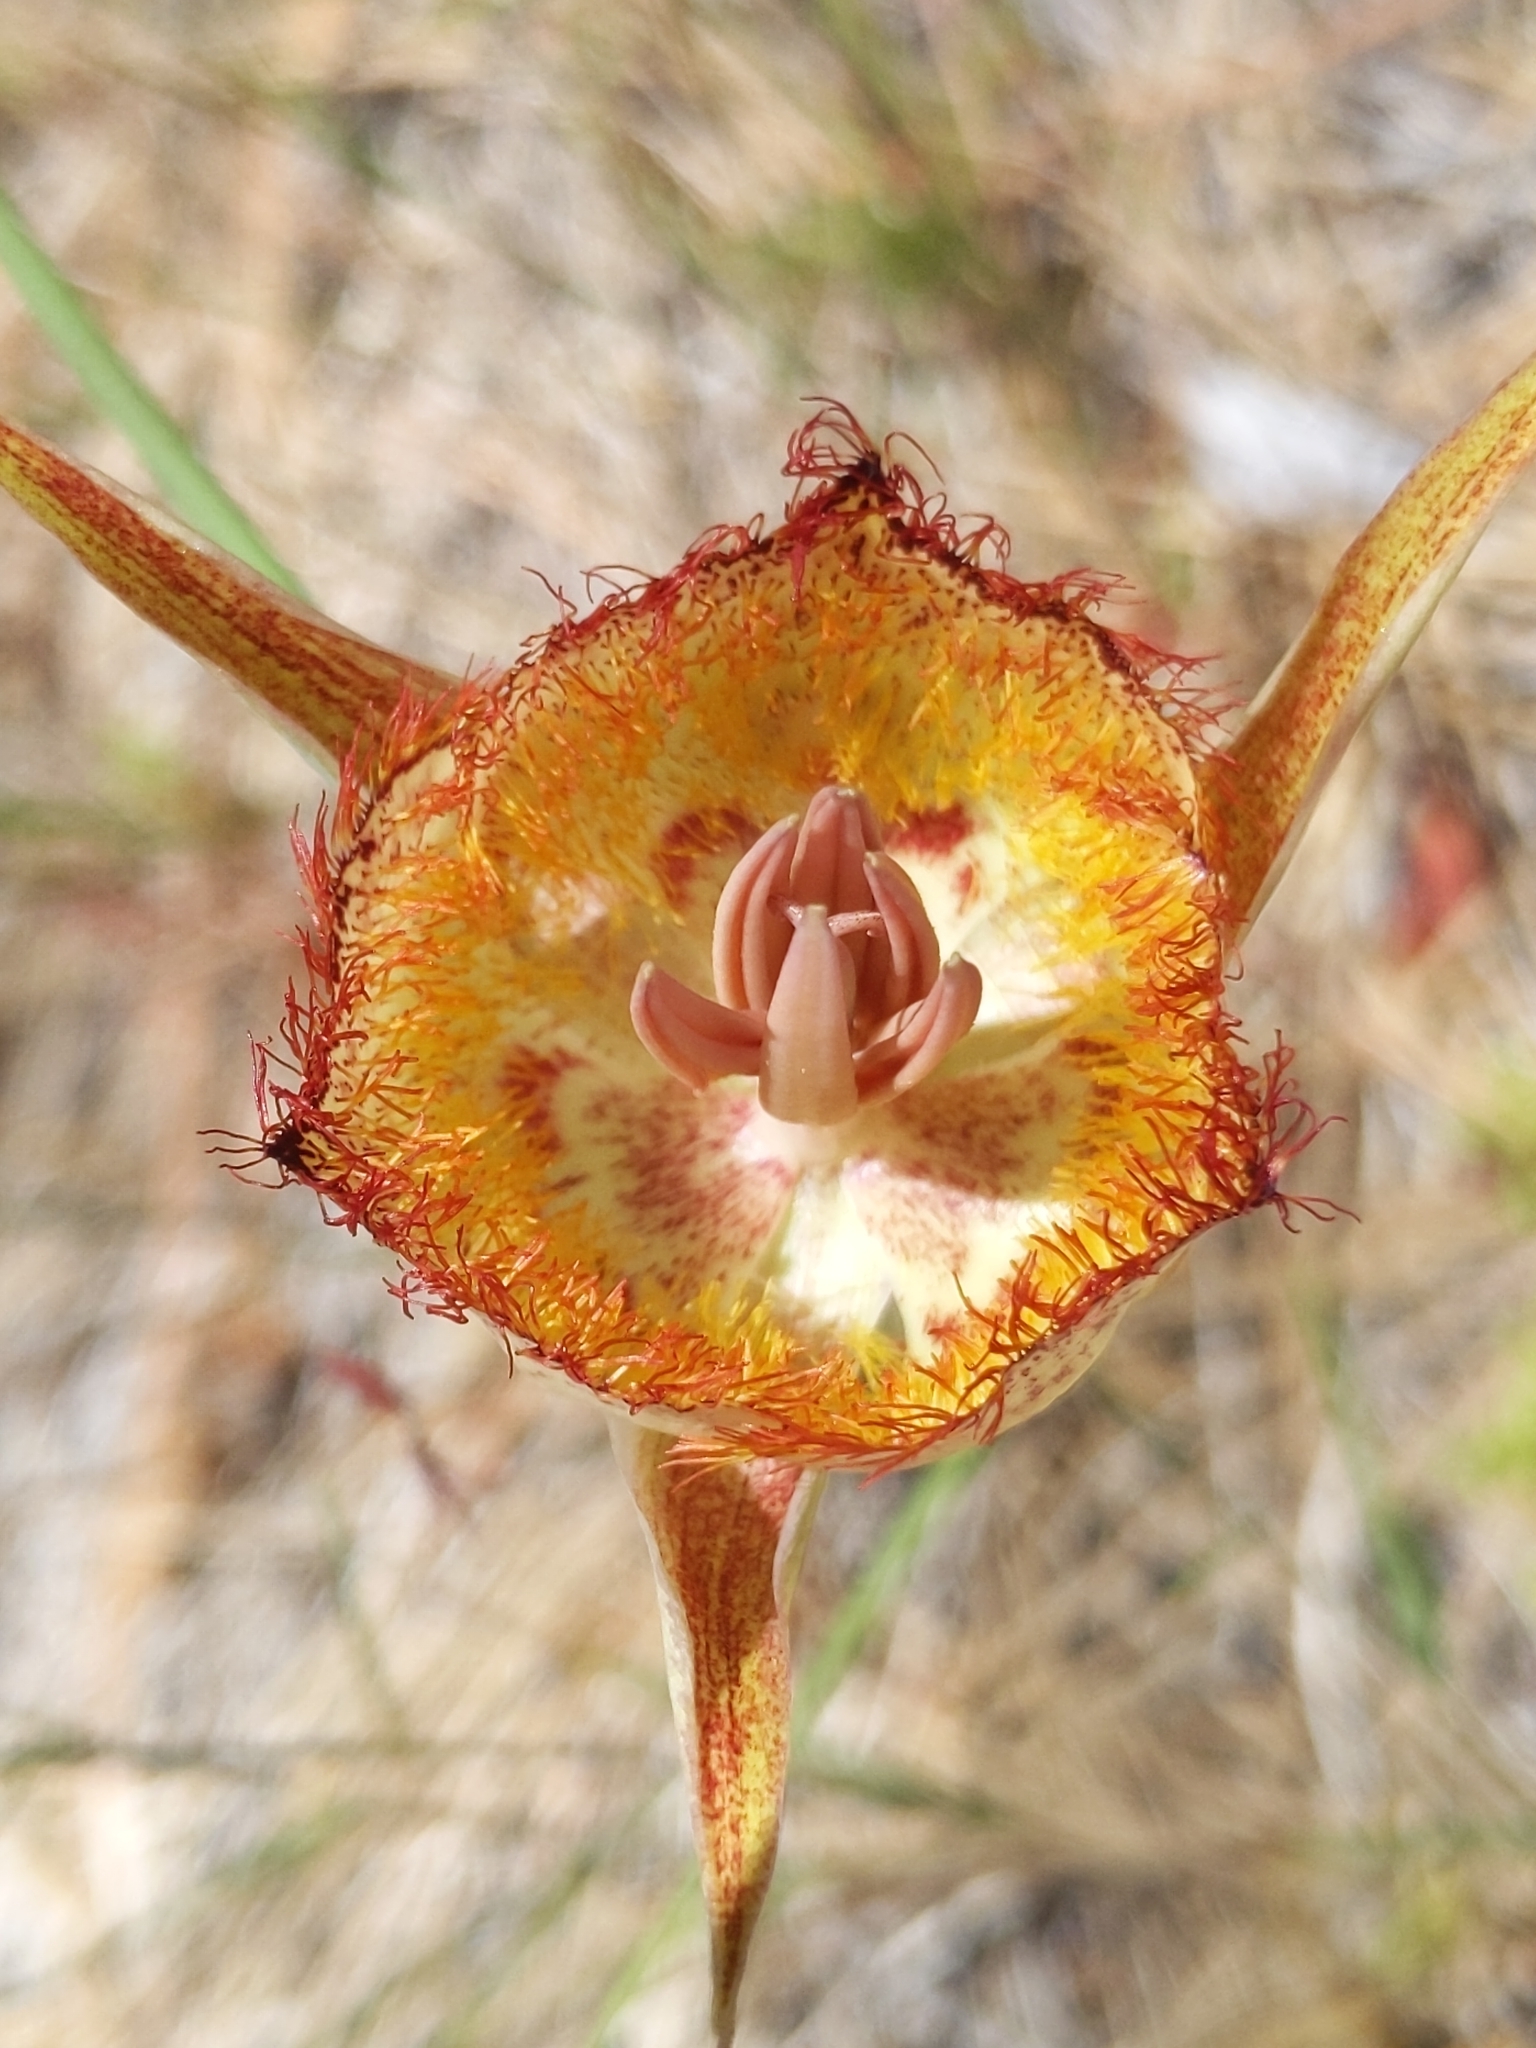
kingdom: Plantae
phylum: Tracheophyta
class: Liliopsida
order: Liliales
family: Liliaceae
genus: Calochortus
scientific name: Calochortus fimbriatus
